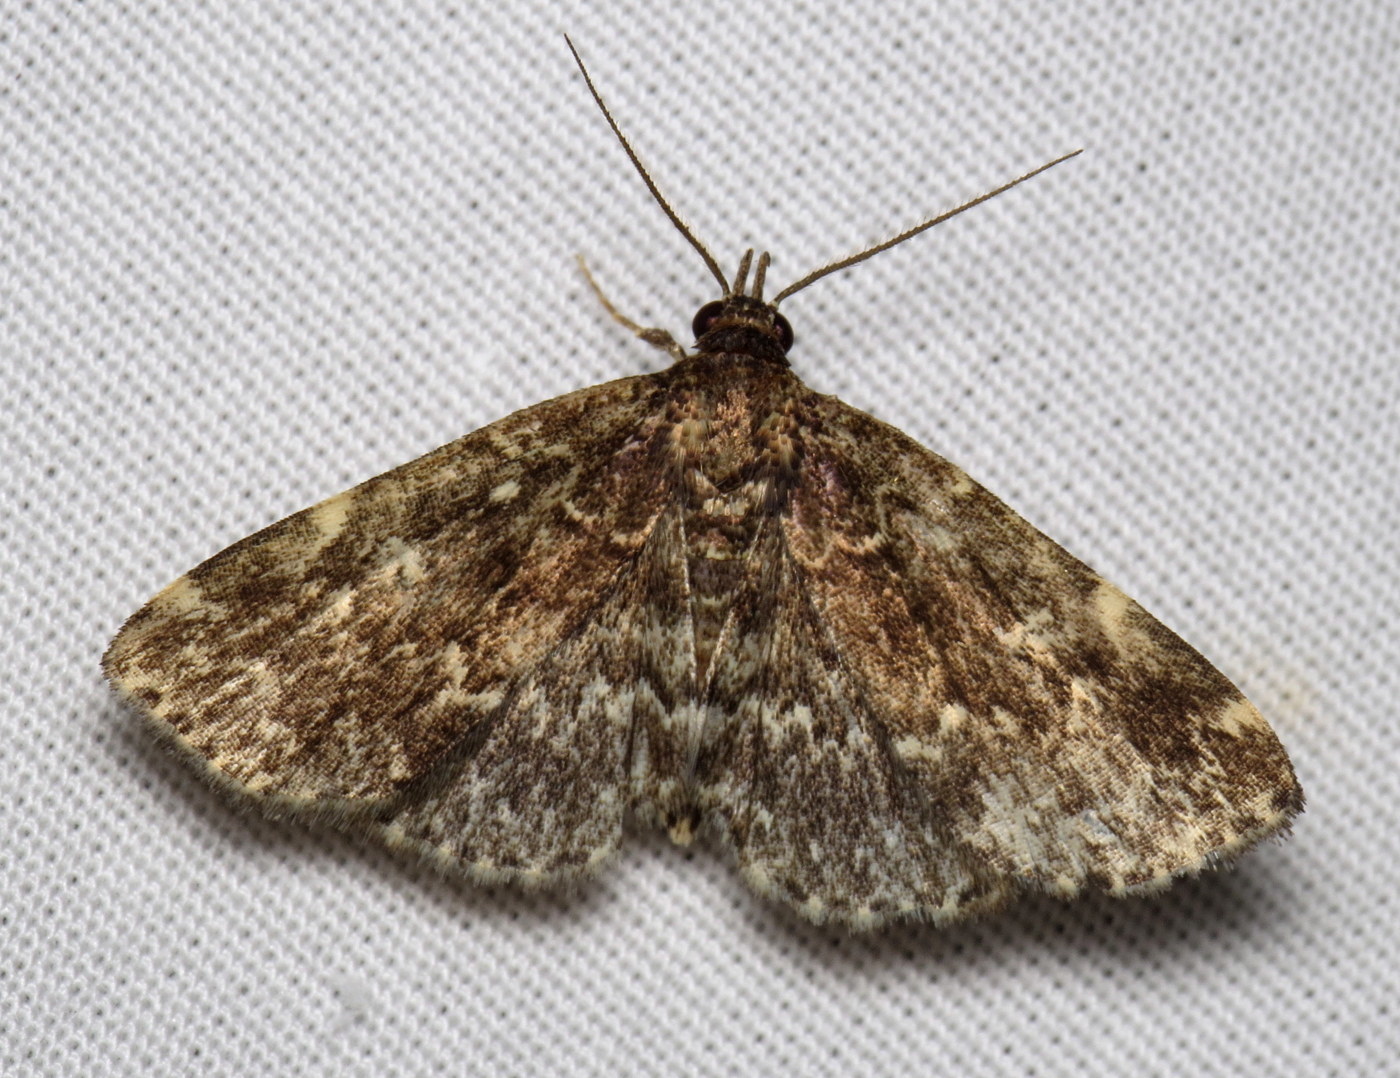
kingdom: Animalia
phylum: Arthropoda
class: Insecta
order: Lepidoptera
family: Erebidae
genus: Idia
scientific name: Idia scobialis
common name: Smoky idia moth
